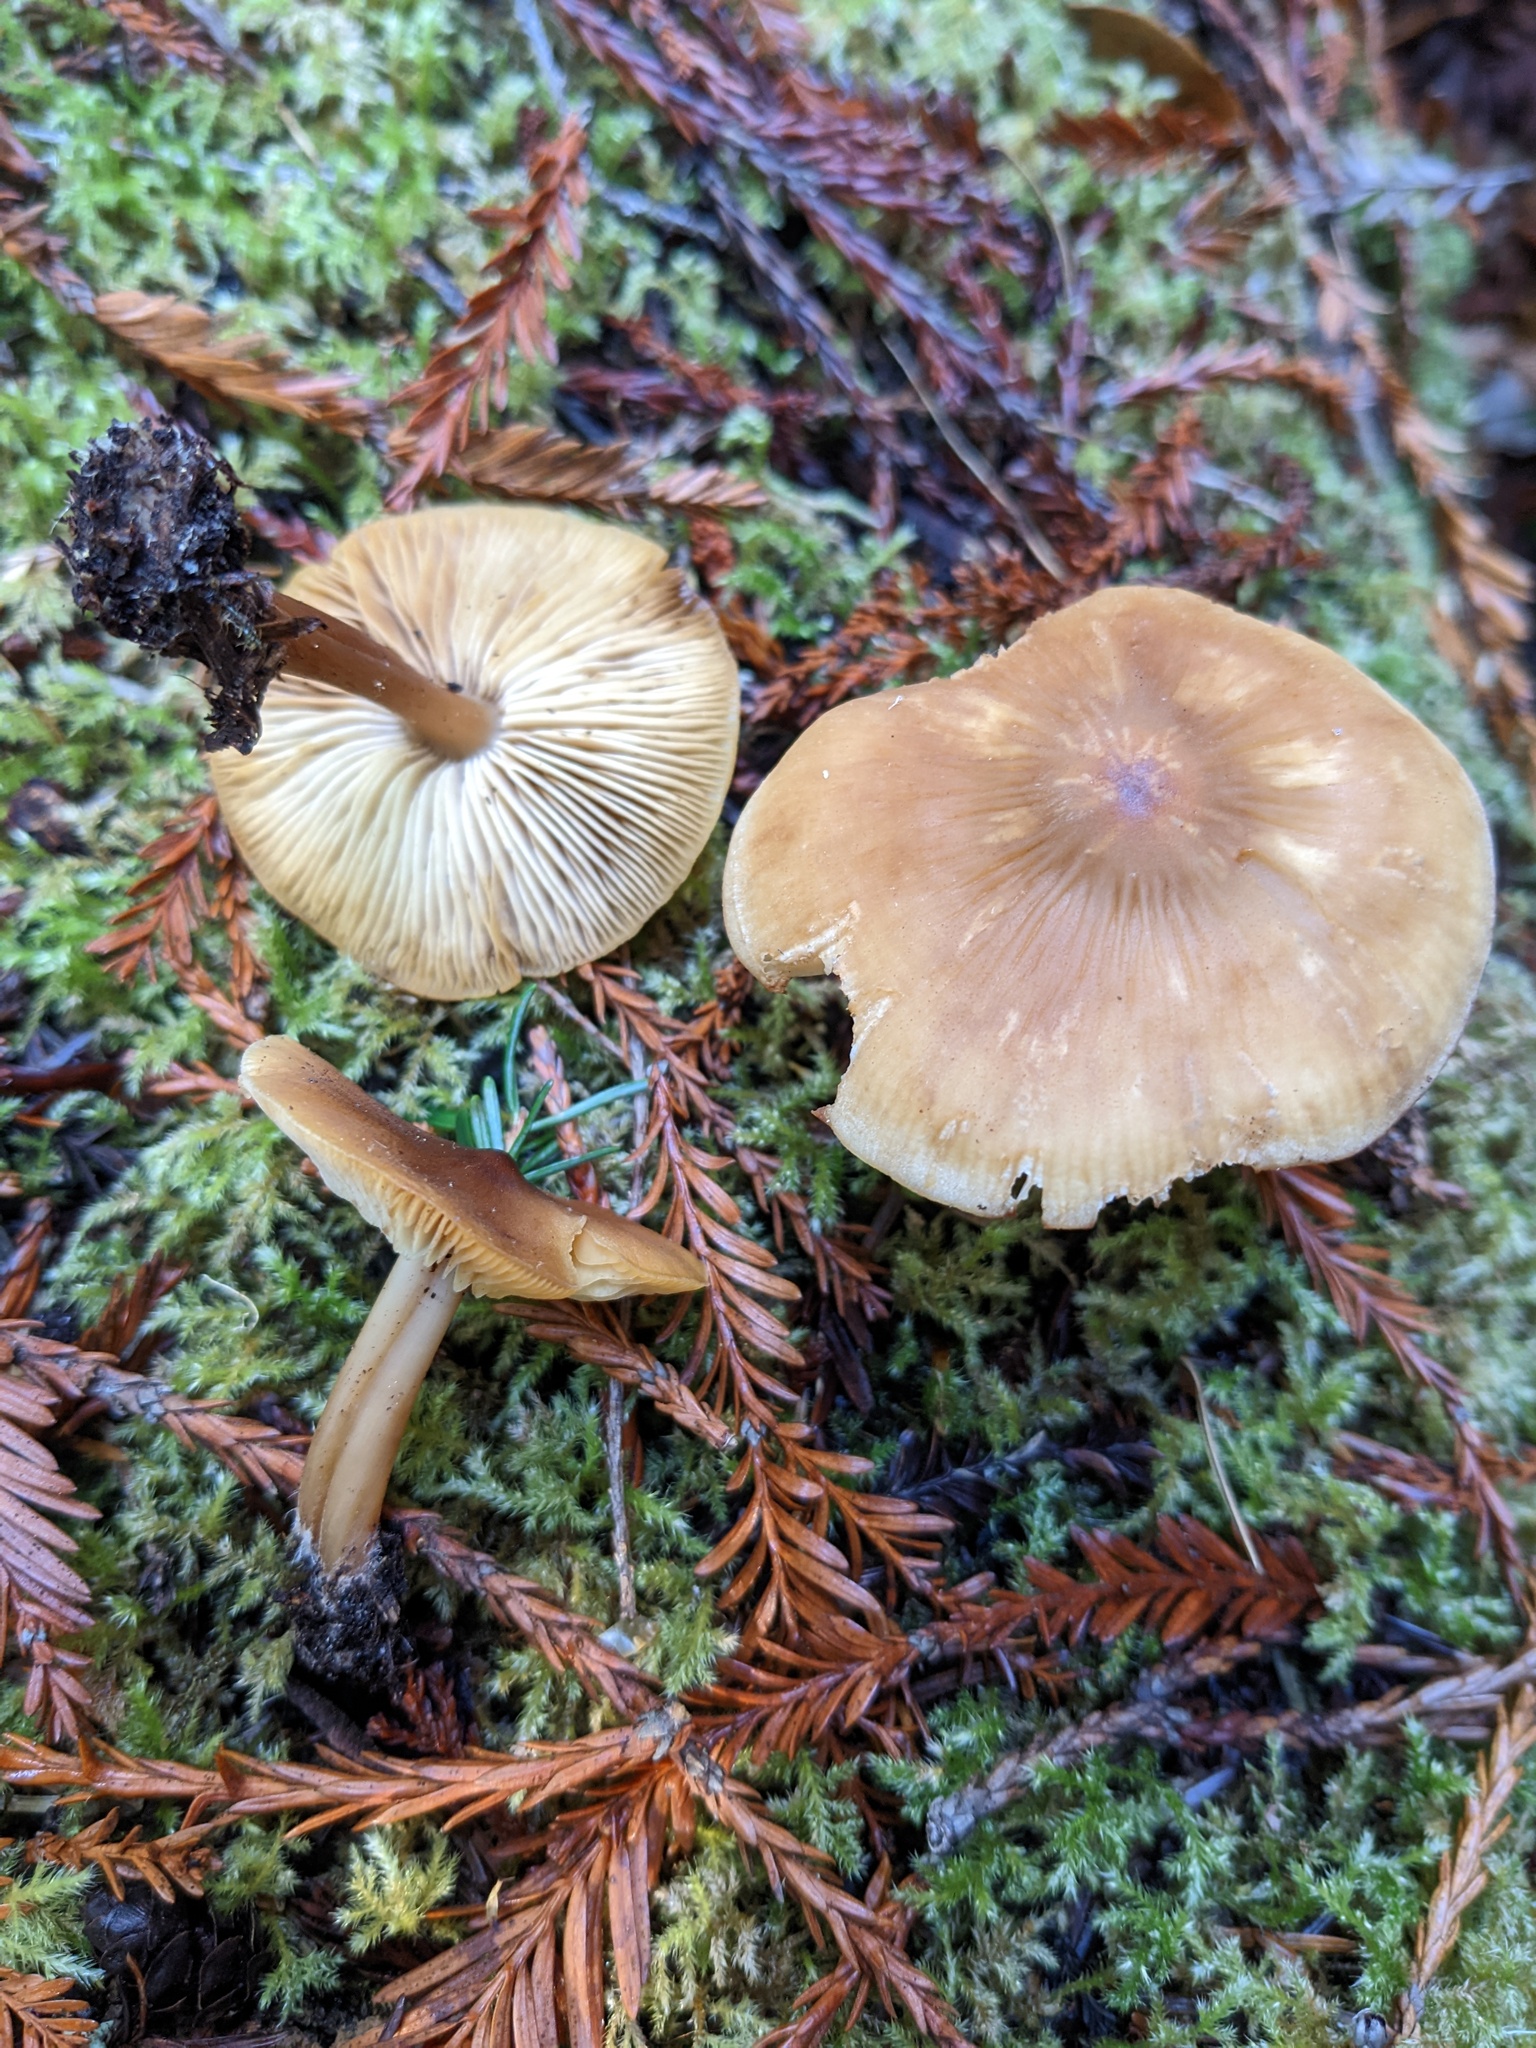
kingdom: Fungi
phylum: Basidiomycota
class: Agaricomycetes
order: Agaricales
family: Tricholomataceae
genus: Caulorhiza
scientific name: Caulorhiza umbonata
